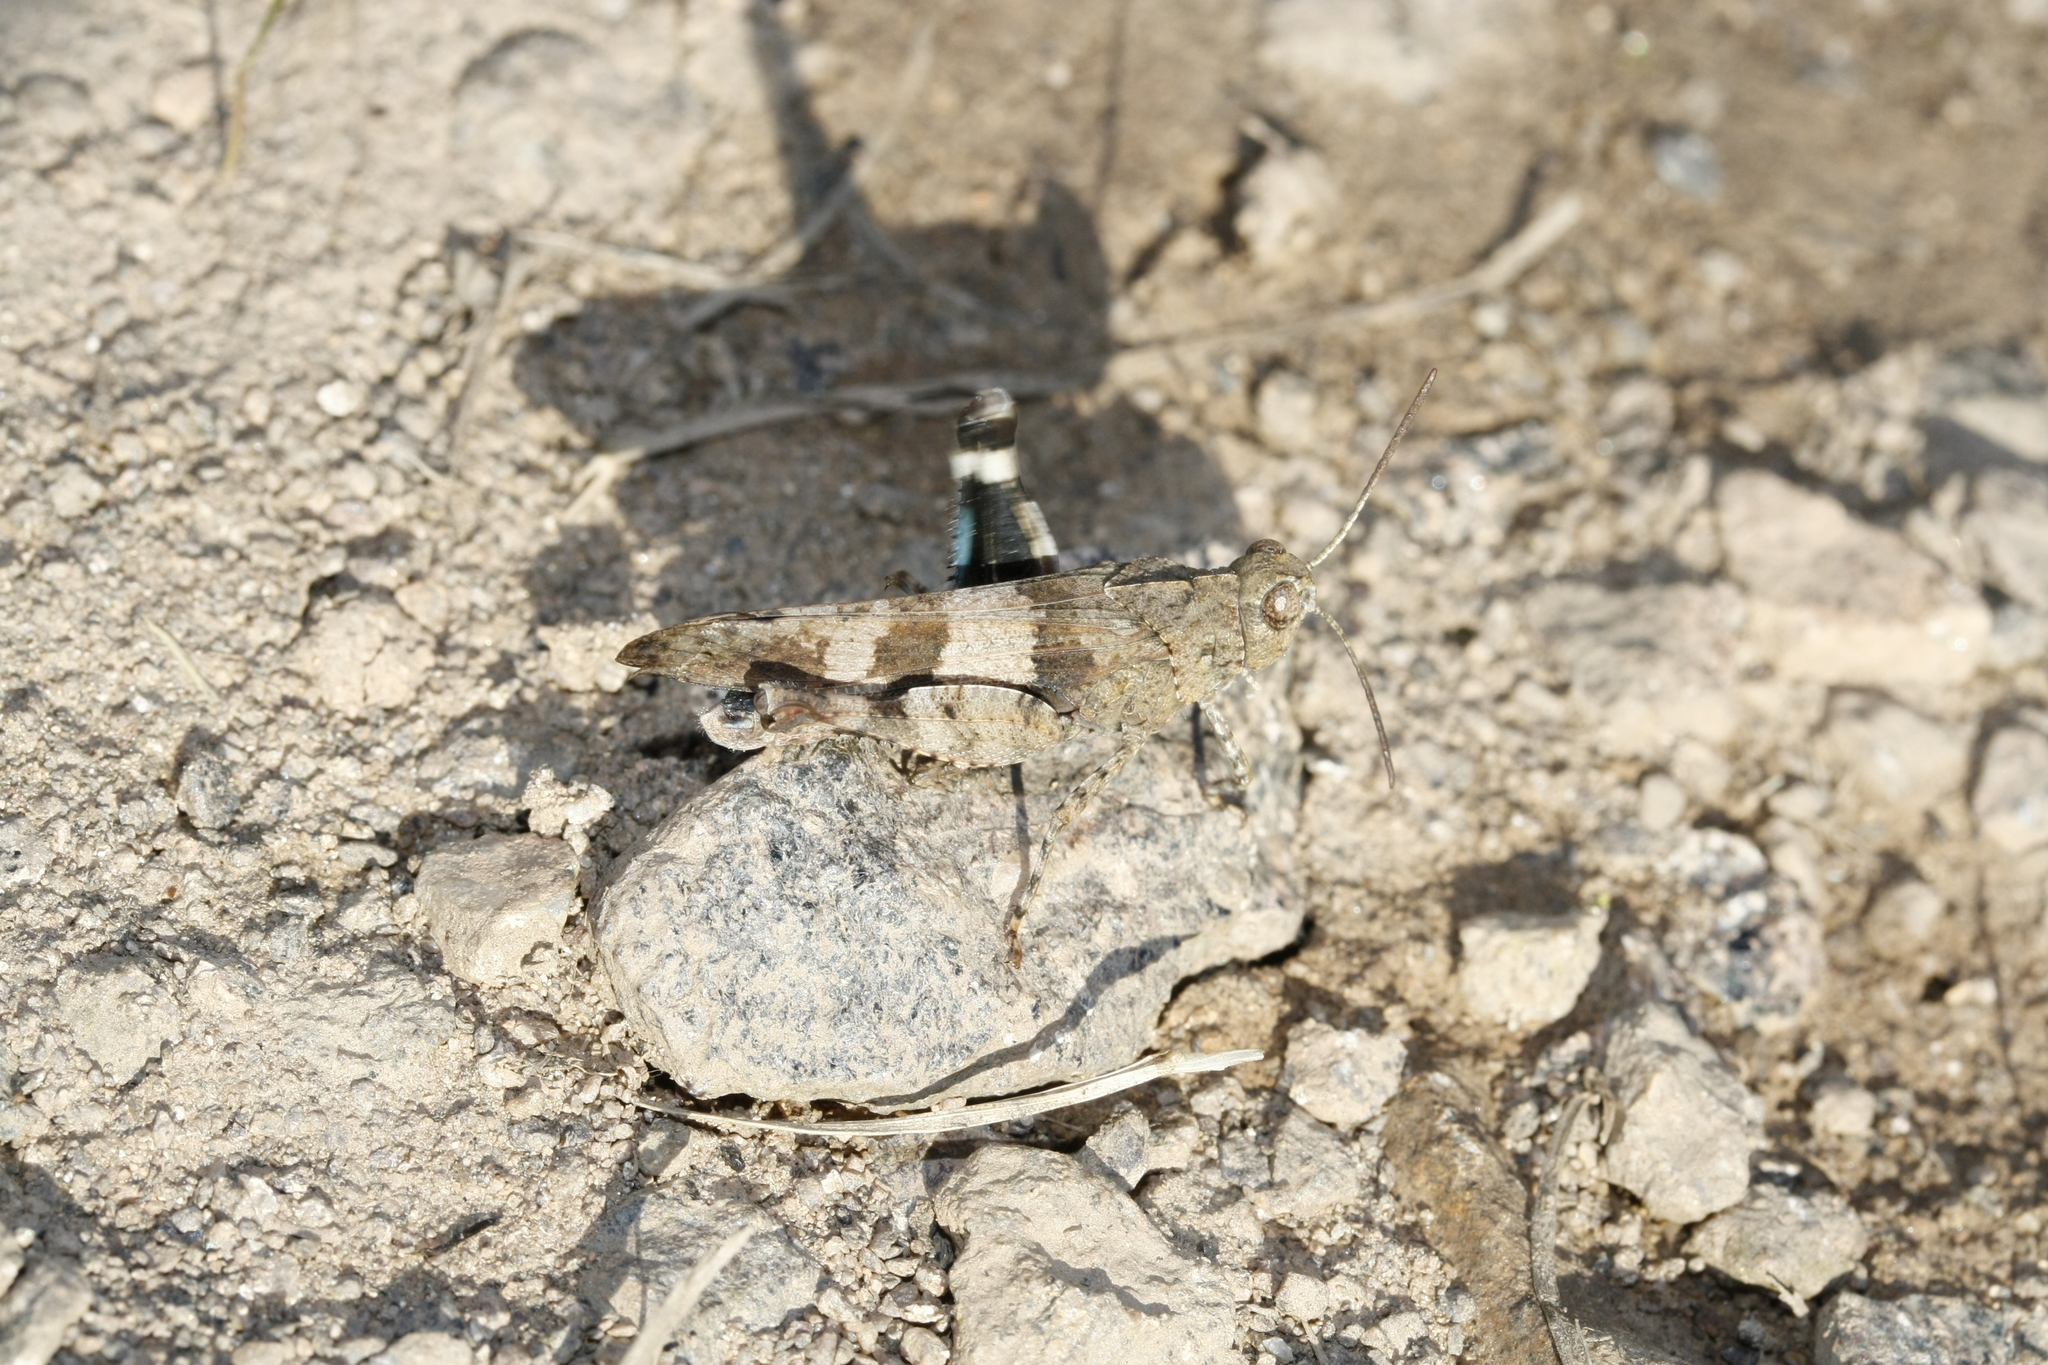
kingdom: Animalia
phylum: Arthropoda
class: Insecta
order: Orthoptera
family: Acrididae
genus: Oedipoda
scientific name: Oedipoda caerulescens
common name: Blue-winged grasshopper
